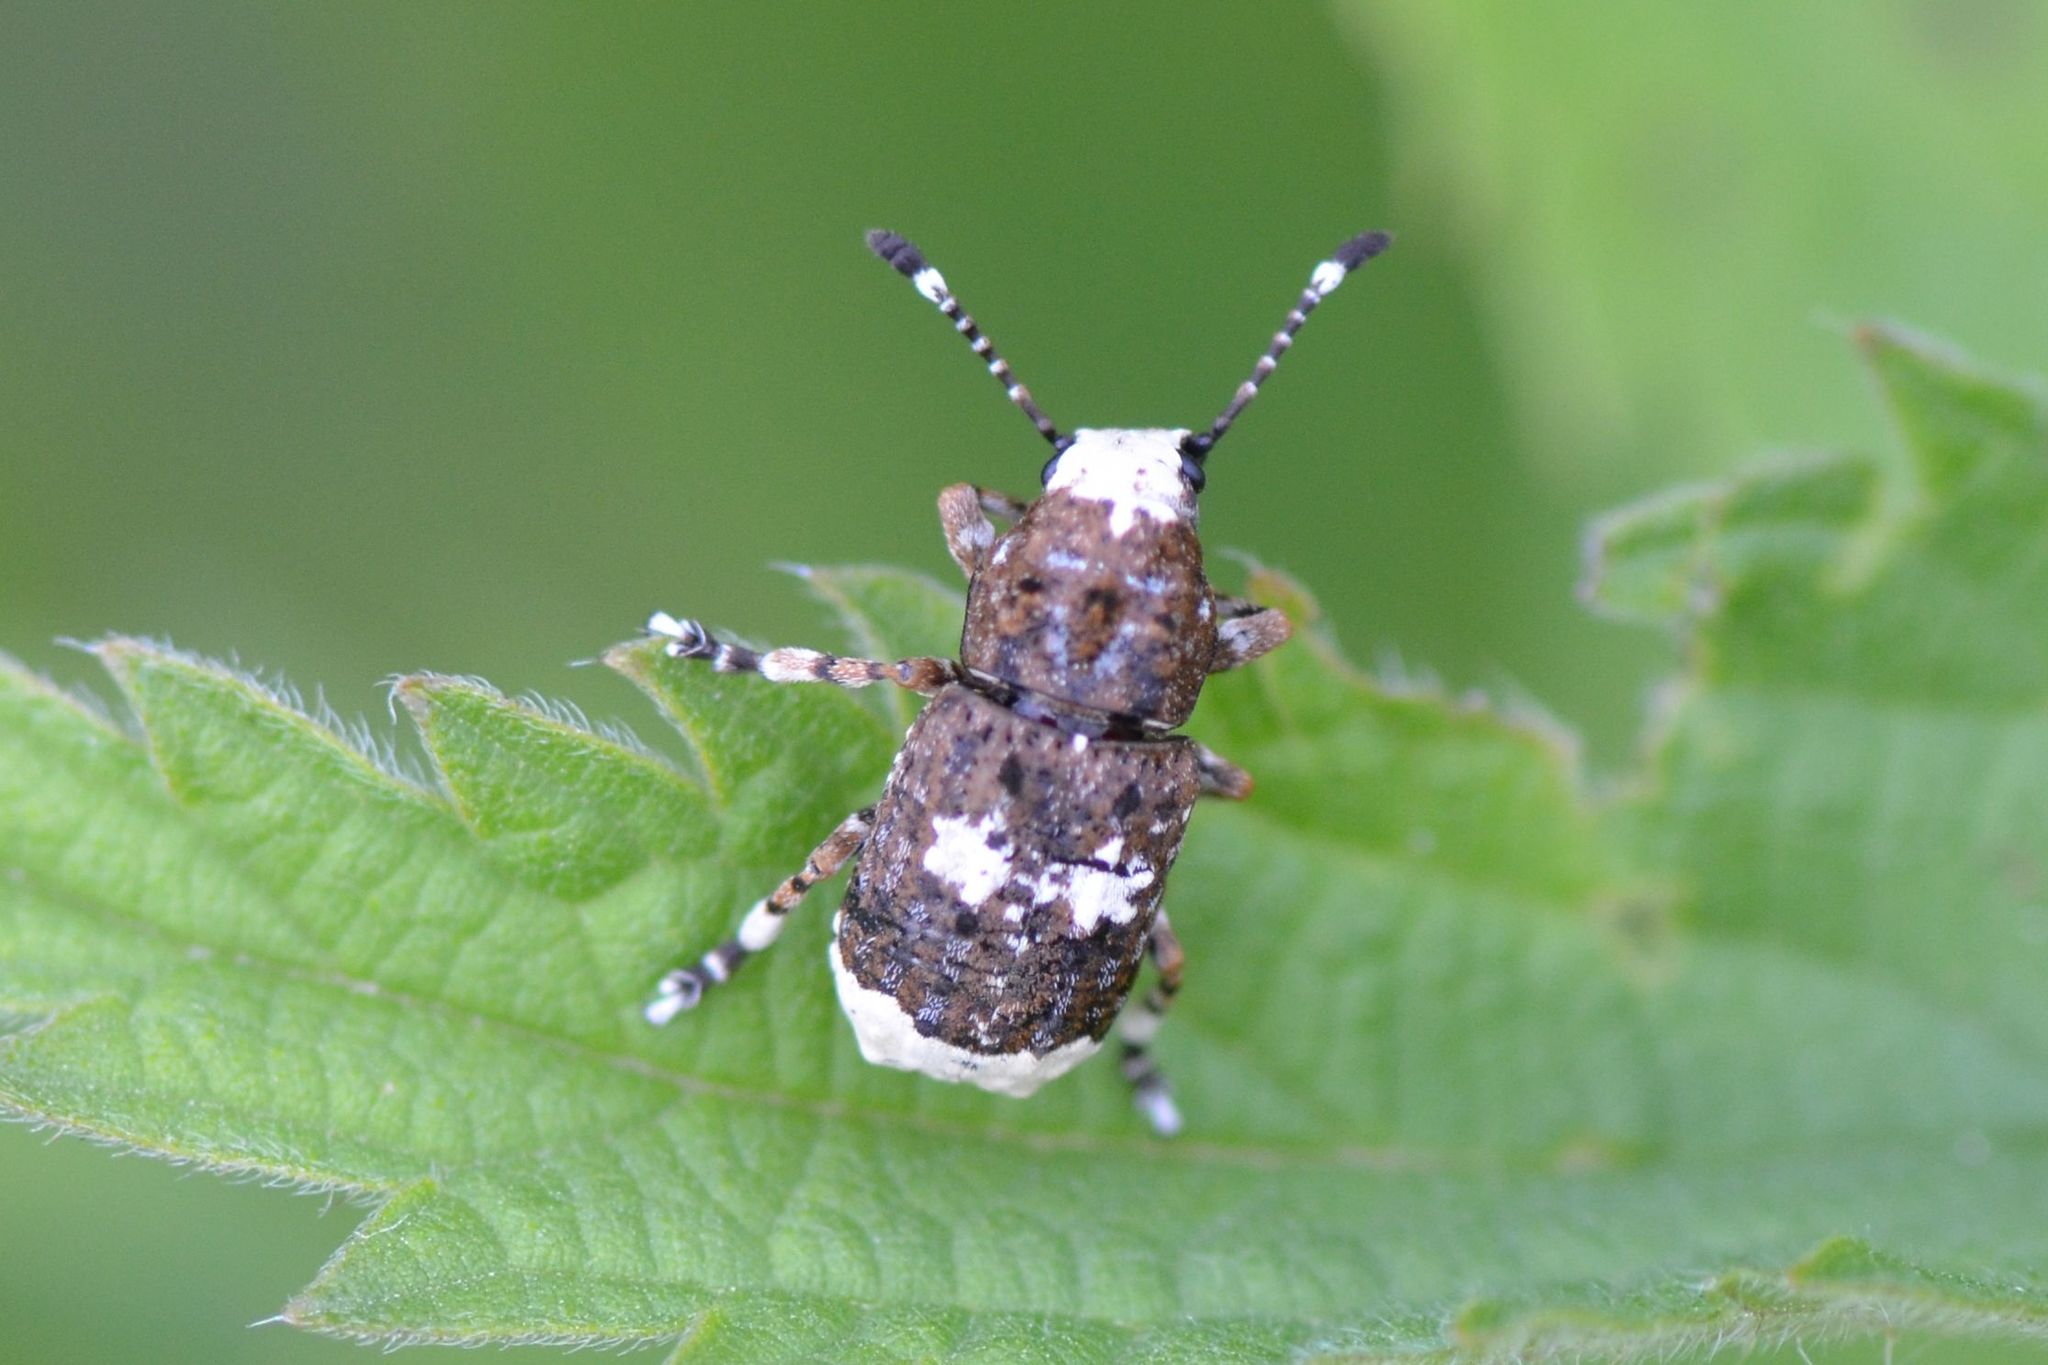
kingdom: Animalia
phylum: Arthropoda
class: Insecta
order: Coleoptera
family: Anthribidae
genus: Platystomos
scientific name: Platystomos albinus
